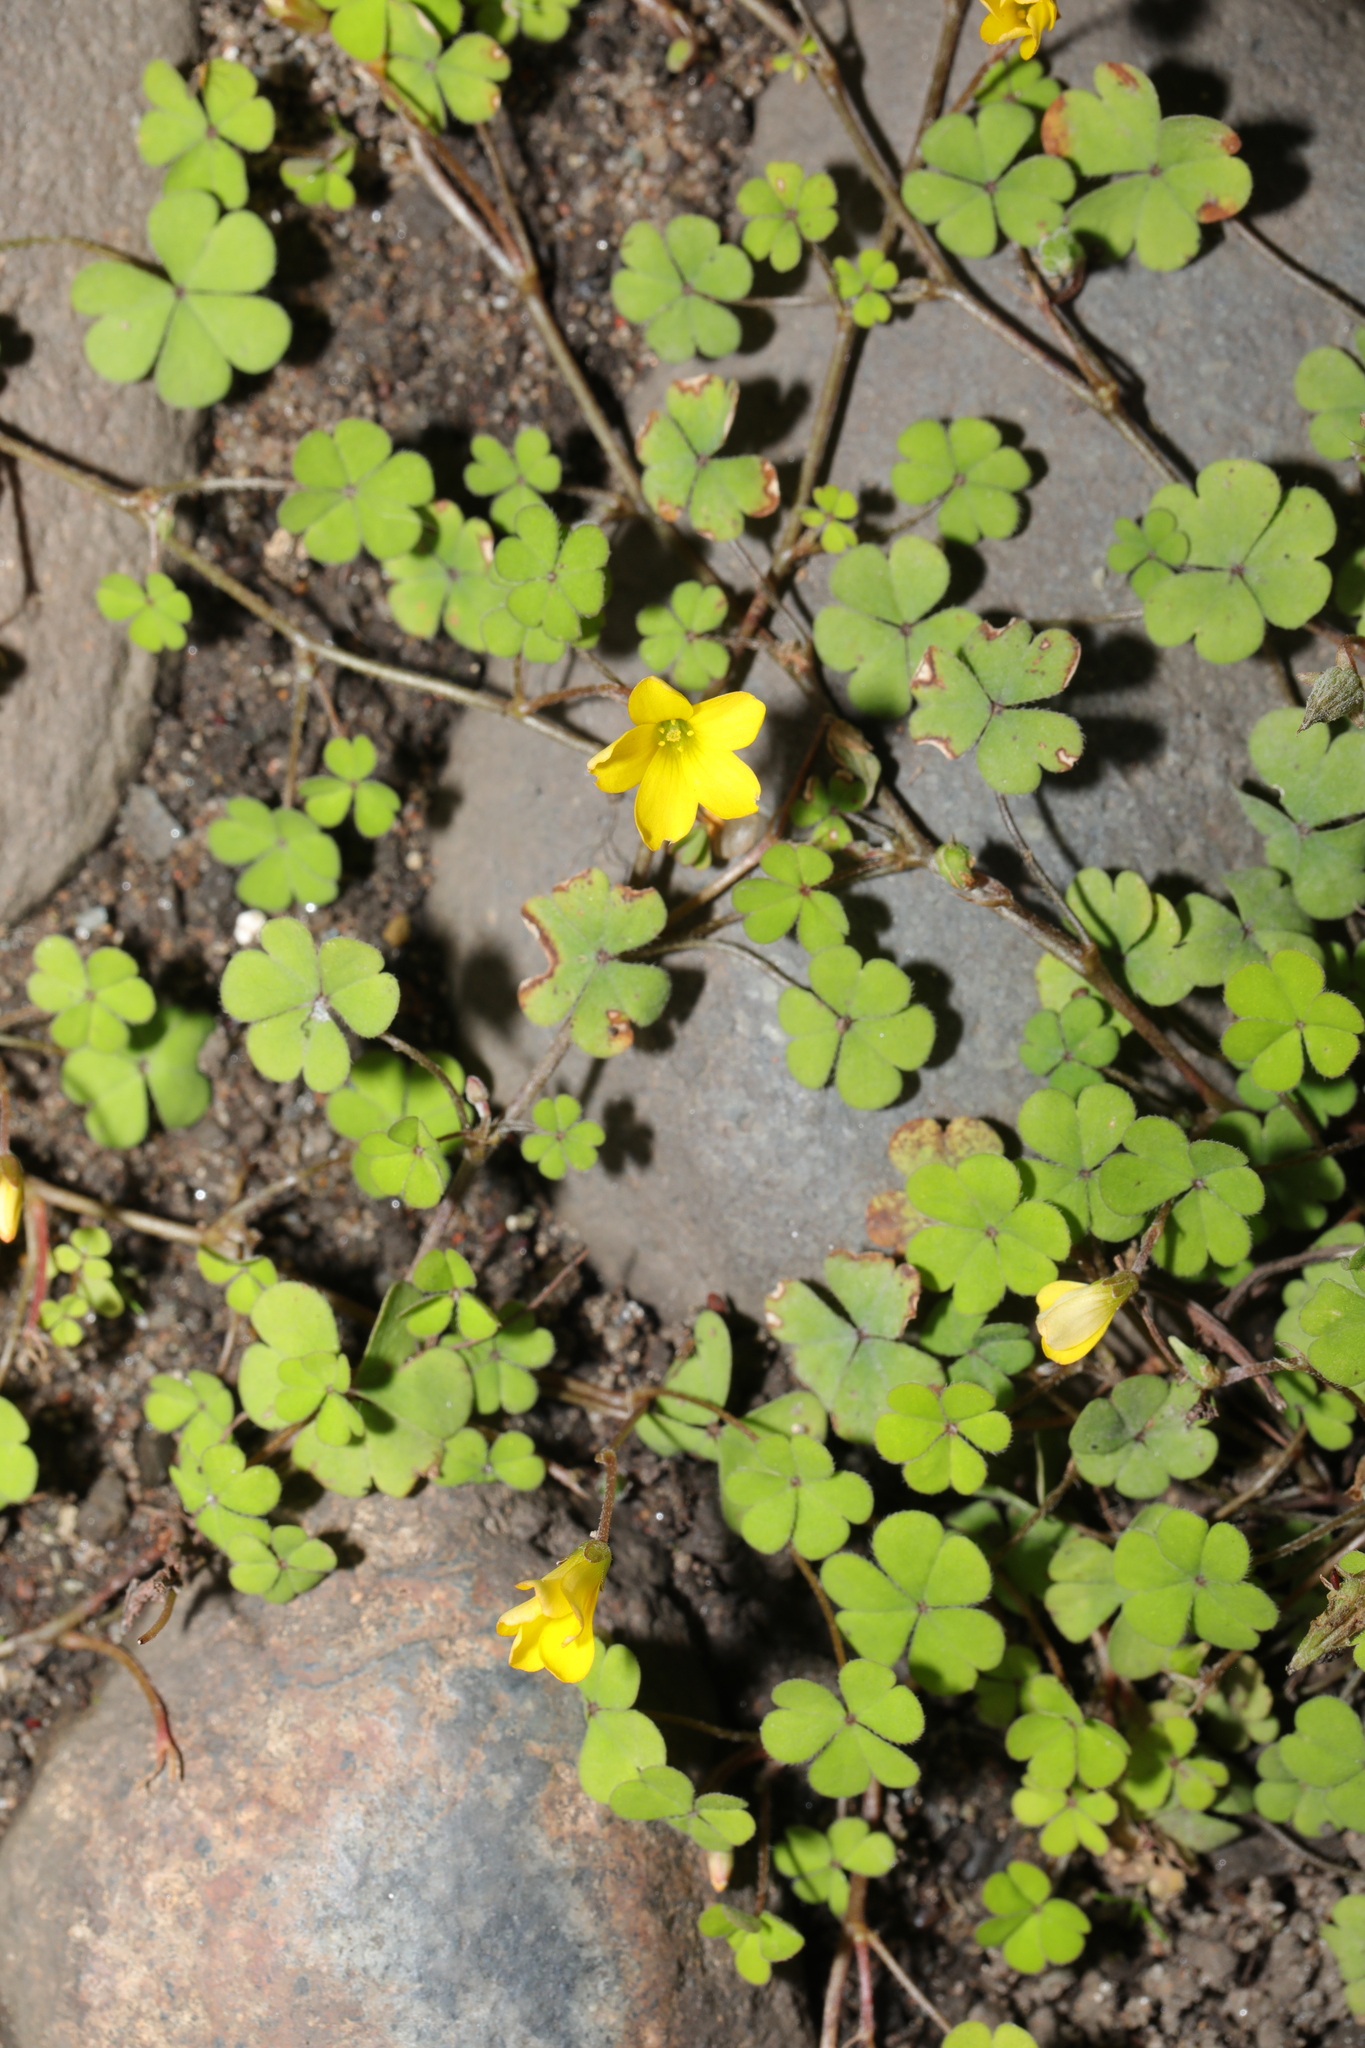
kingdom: Plantae
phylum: Tracheophyta
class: Magnoliopsida
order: Oxalidales
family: Oxalidaceae
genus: Oxalis
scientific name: Oxalis exilis
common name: Least yellow-sorrel
